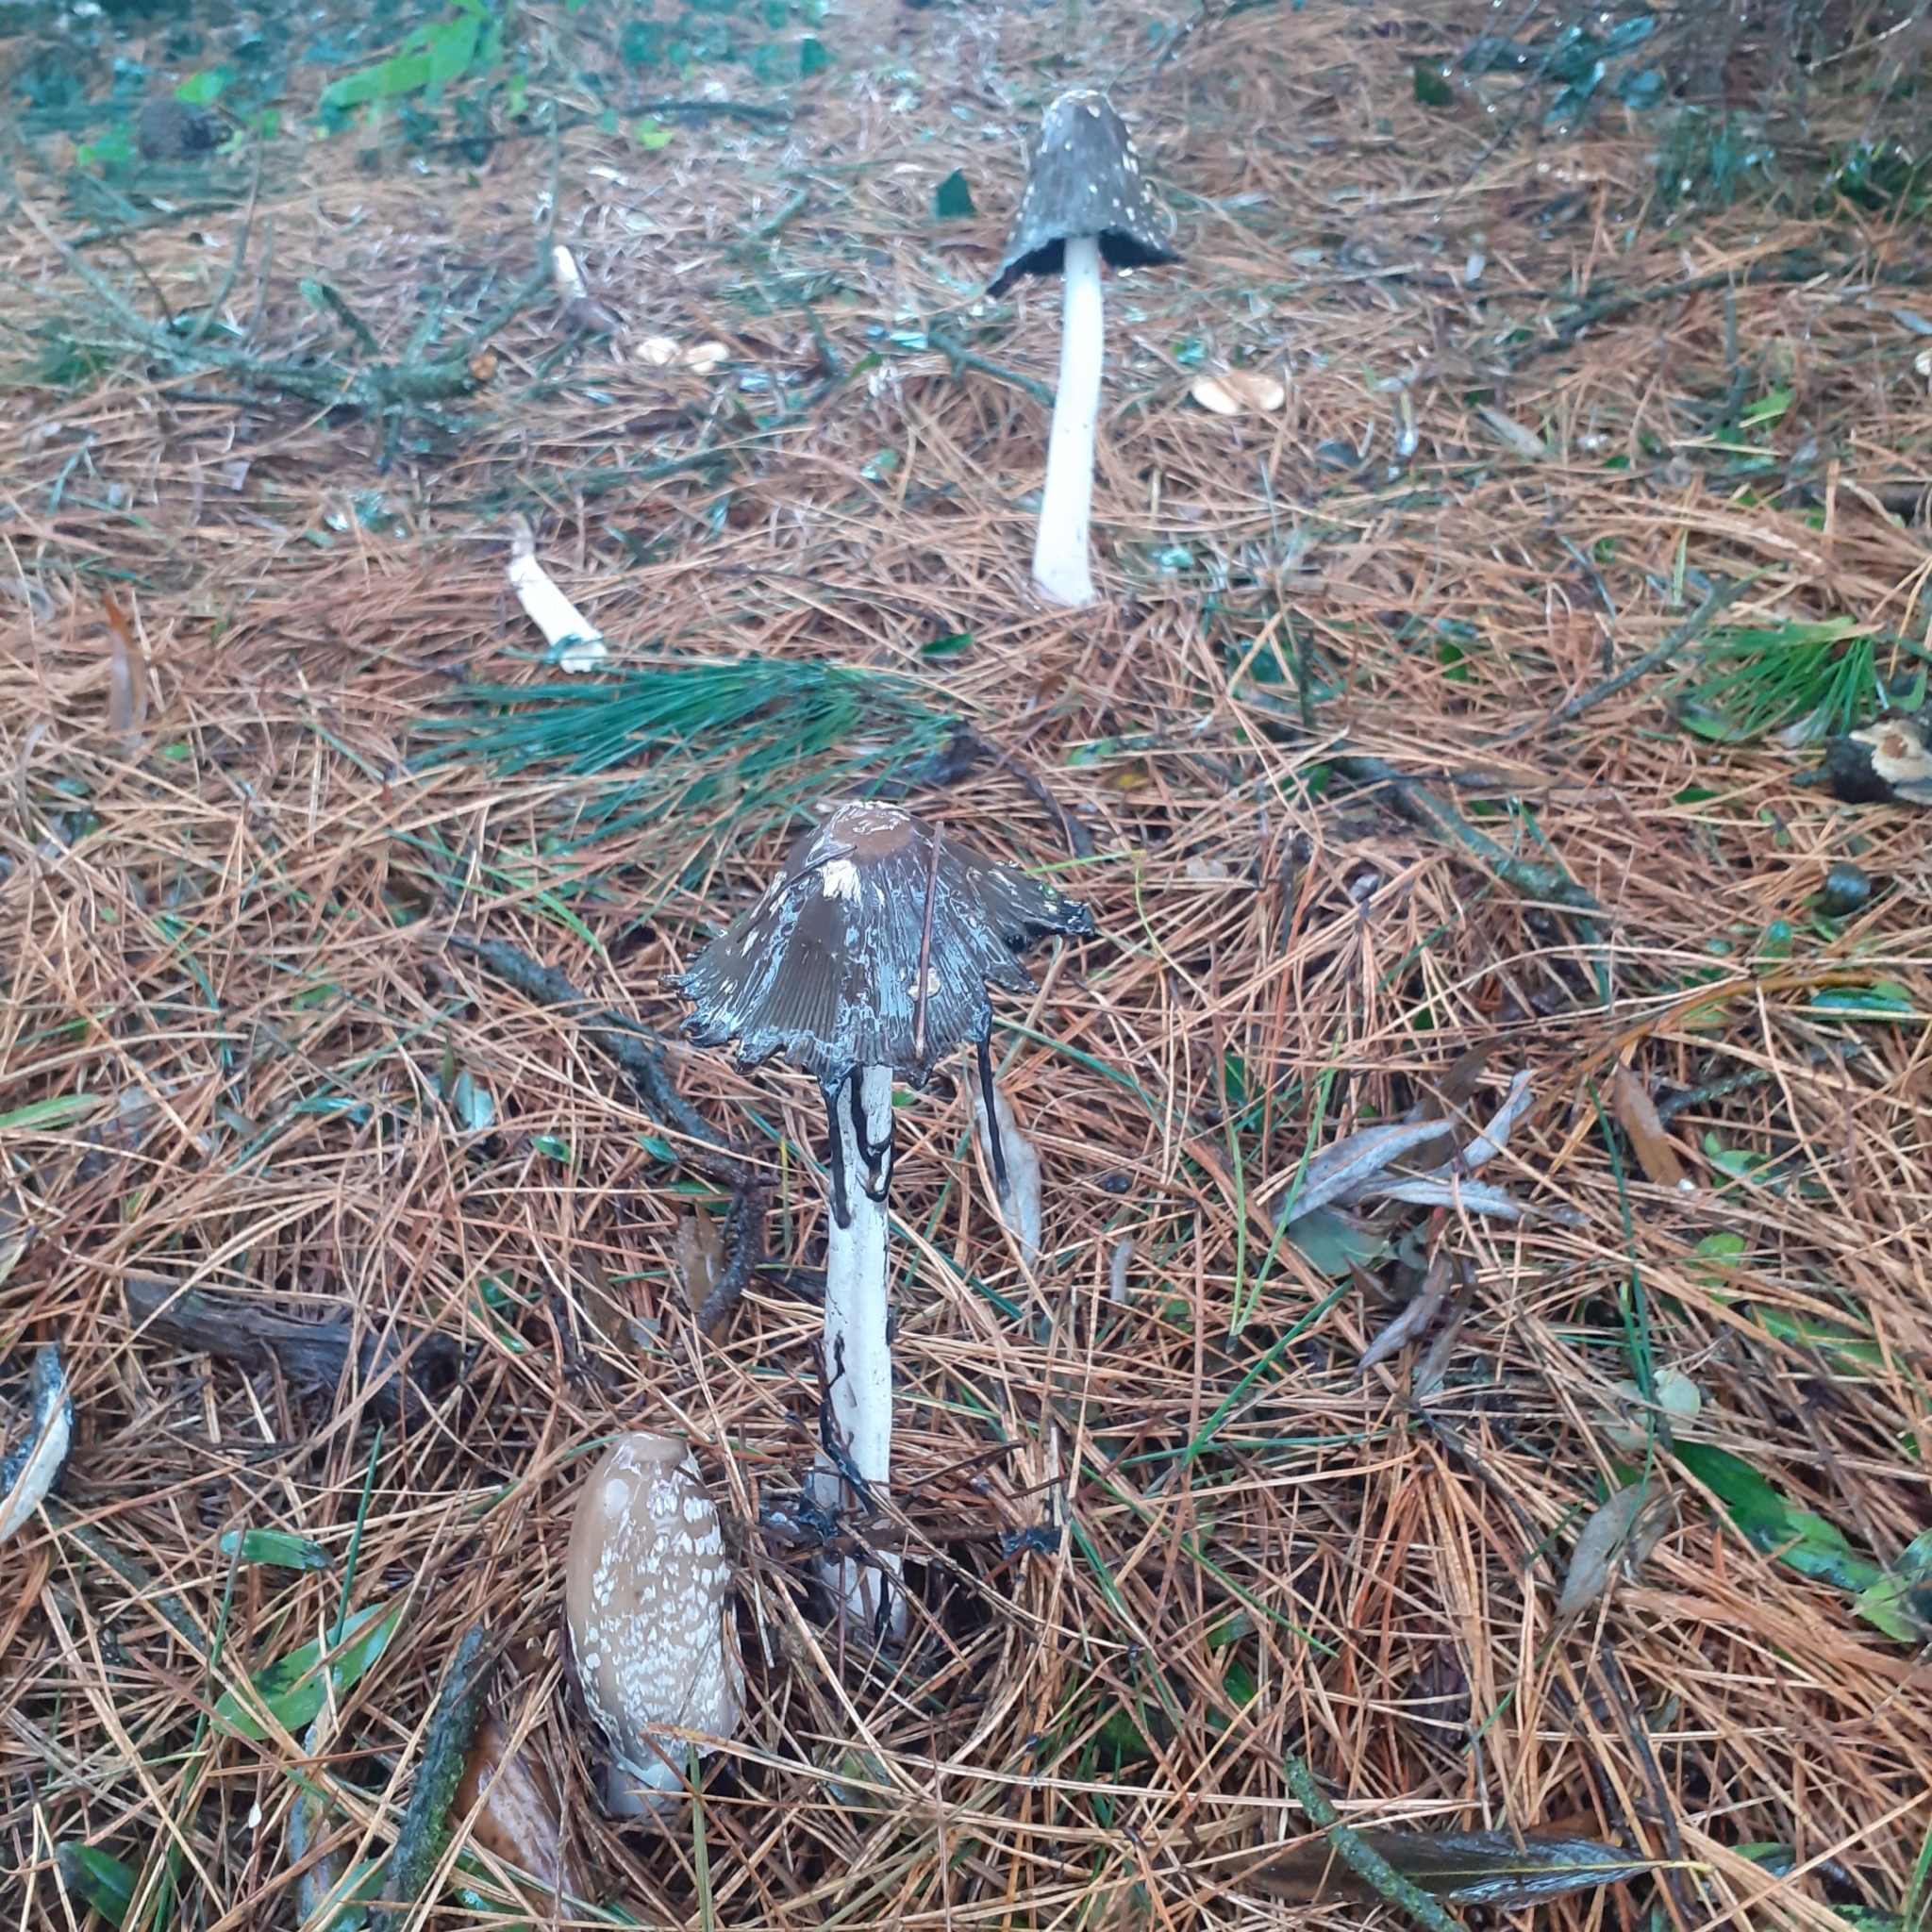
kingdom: Fungi
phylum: Basidiomycota
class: Agaricomycetes
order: Agaricales
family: Psathyrellaceae
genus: Coprinopsis
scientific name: Coprinopsis picacea
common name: Magpie inkcap
